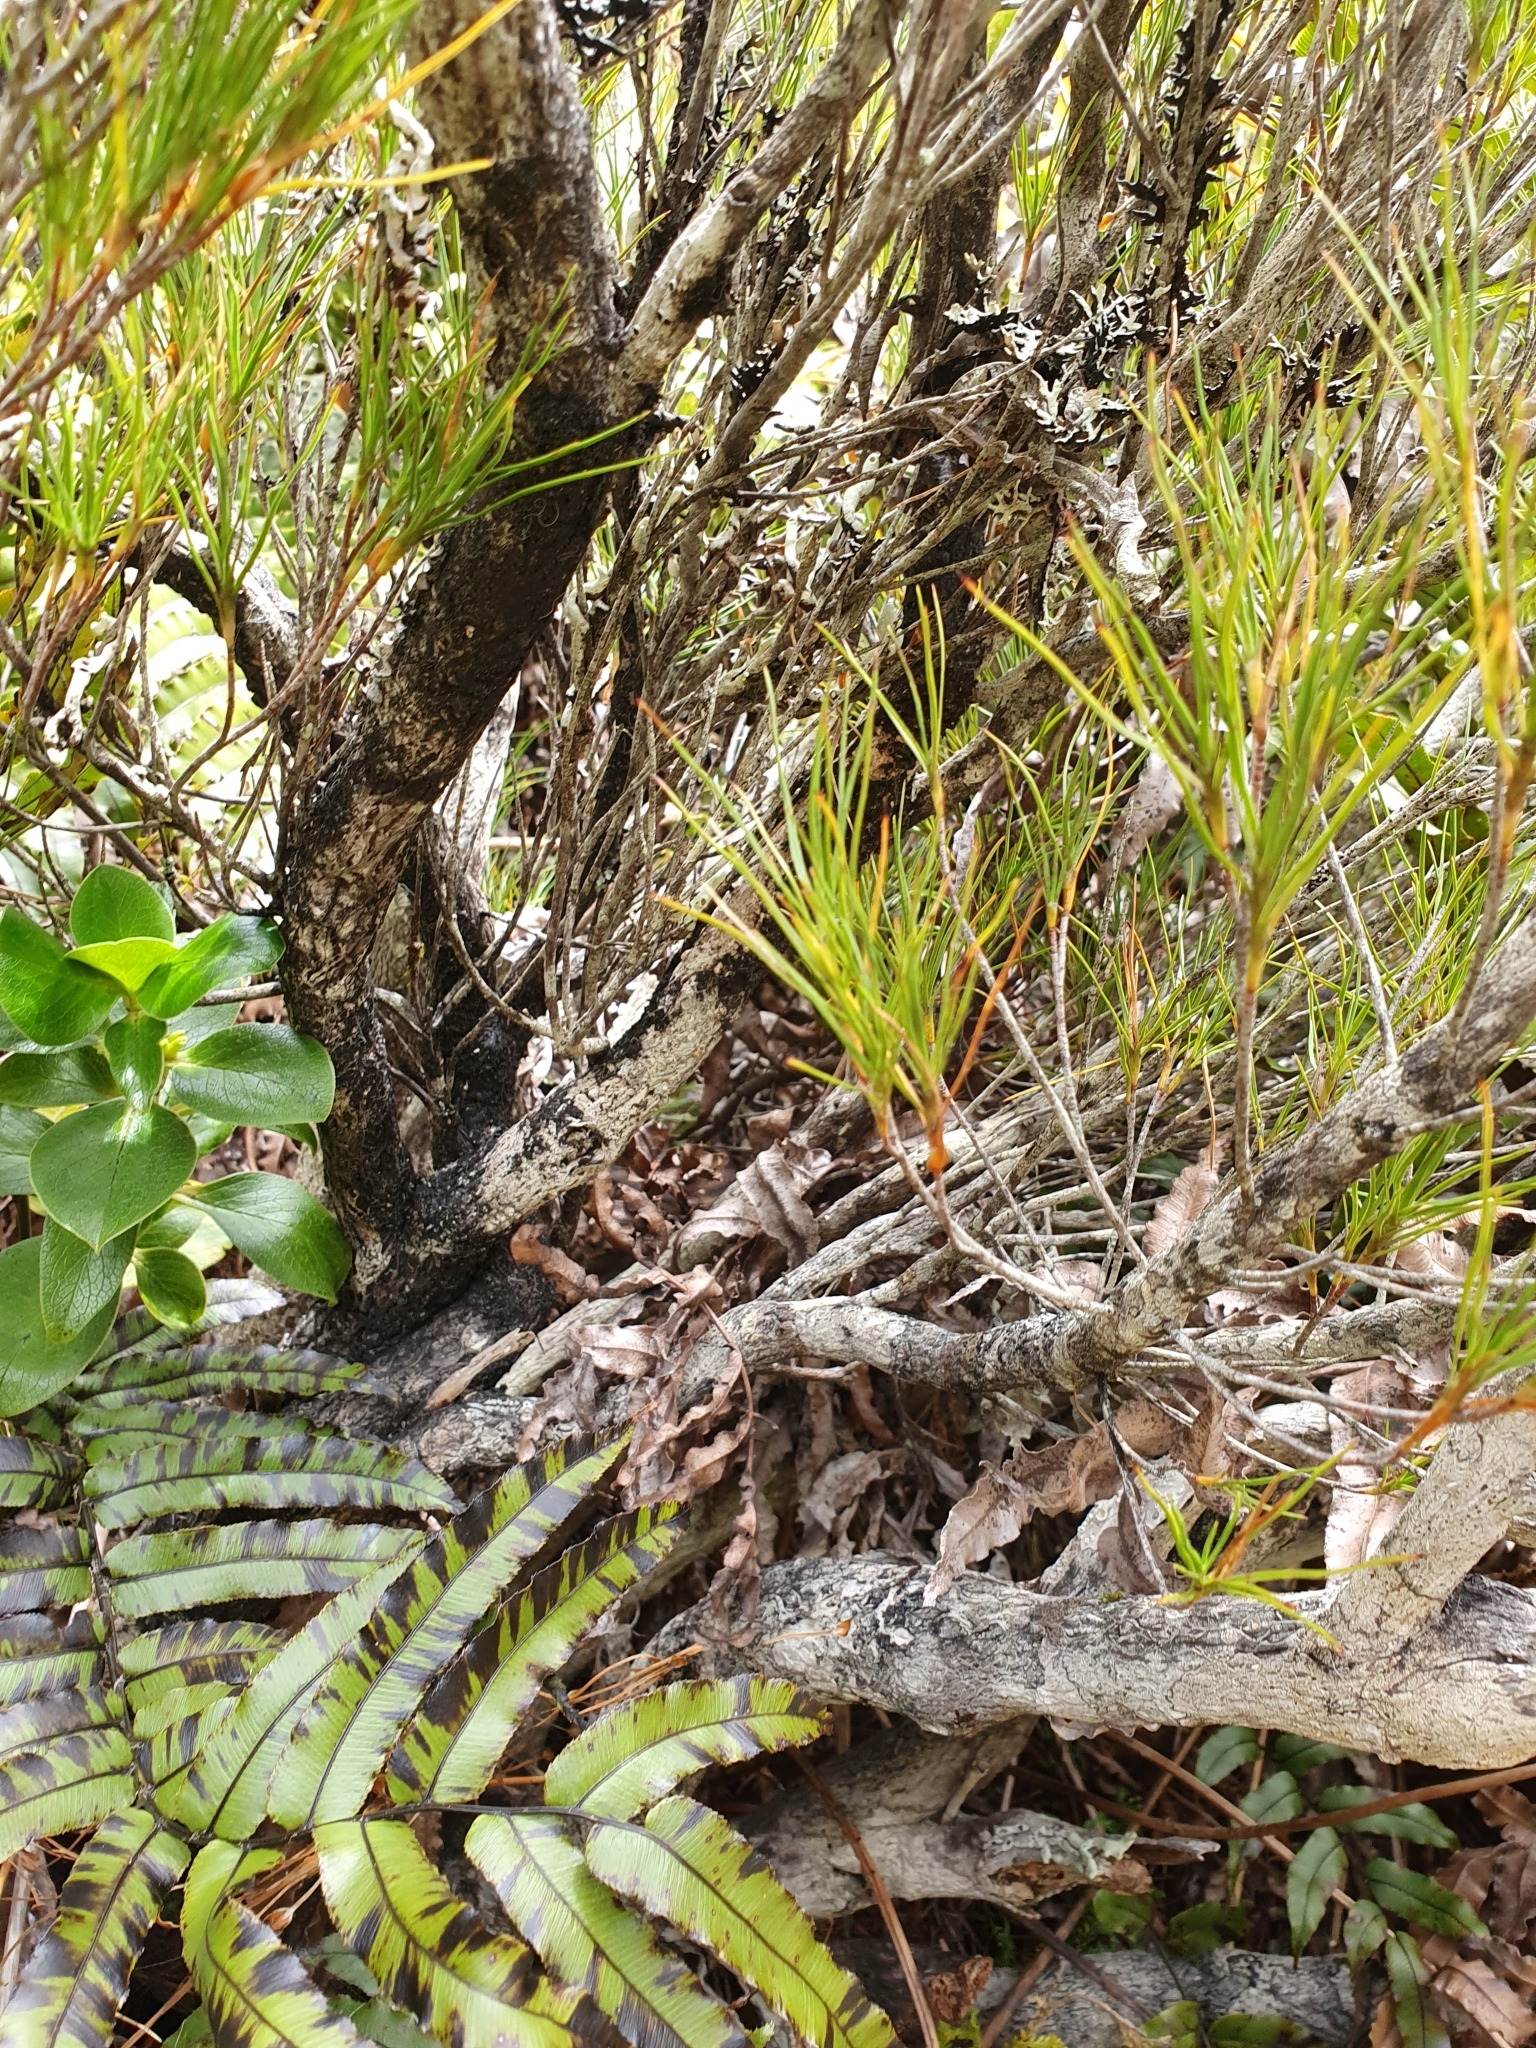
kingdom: Plantae
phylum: Tracheophyta
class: Magnoliopsida
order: Ericales
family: Ericaceae
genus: Dracophyllum
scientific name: Dracophyllum rosmarinifolium
